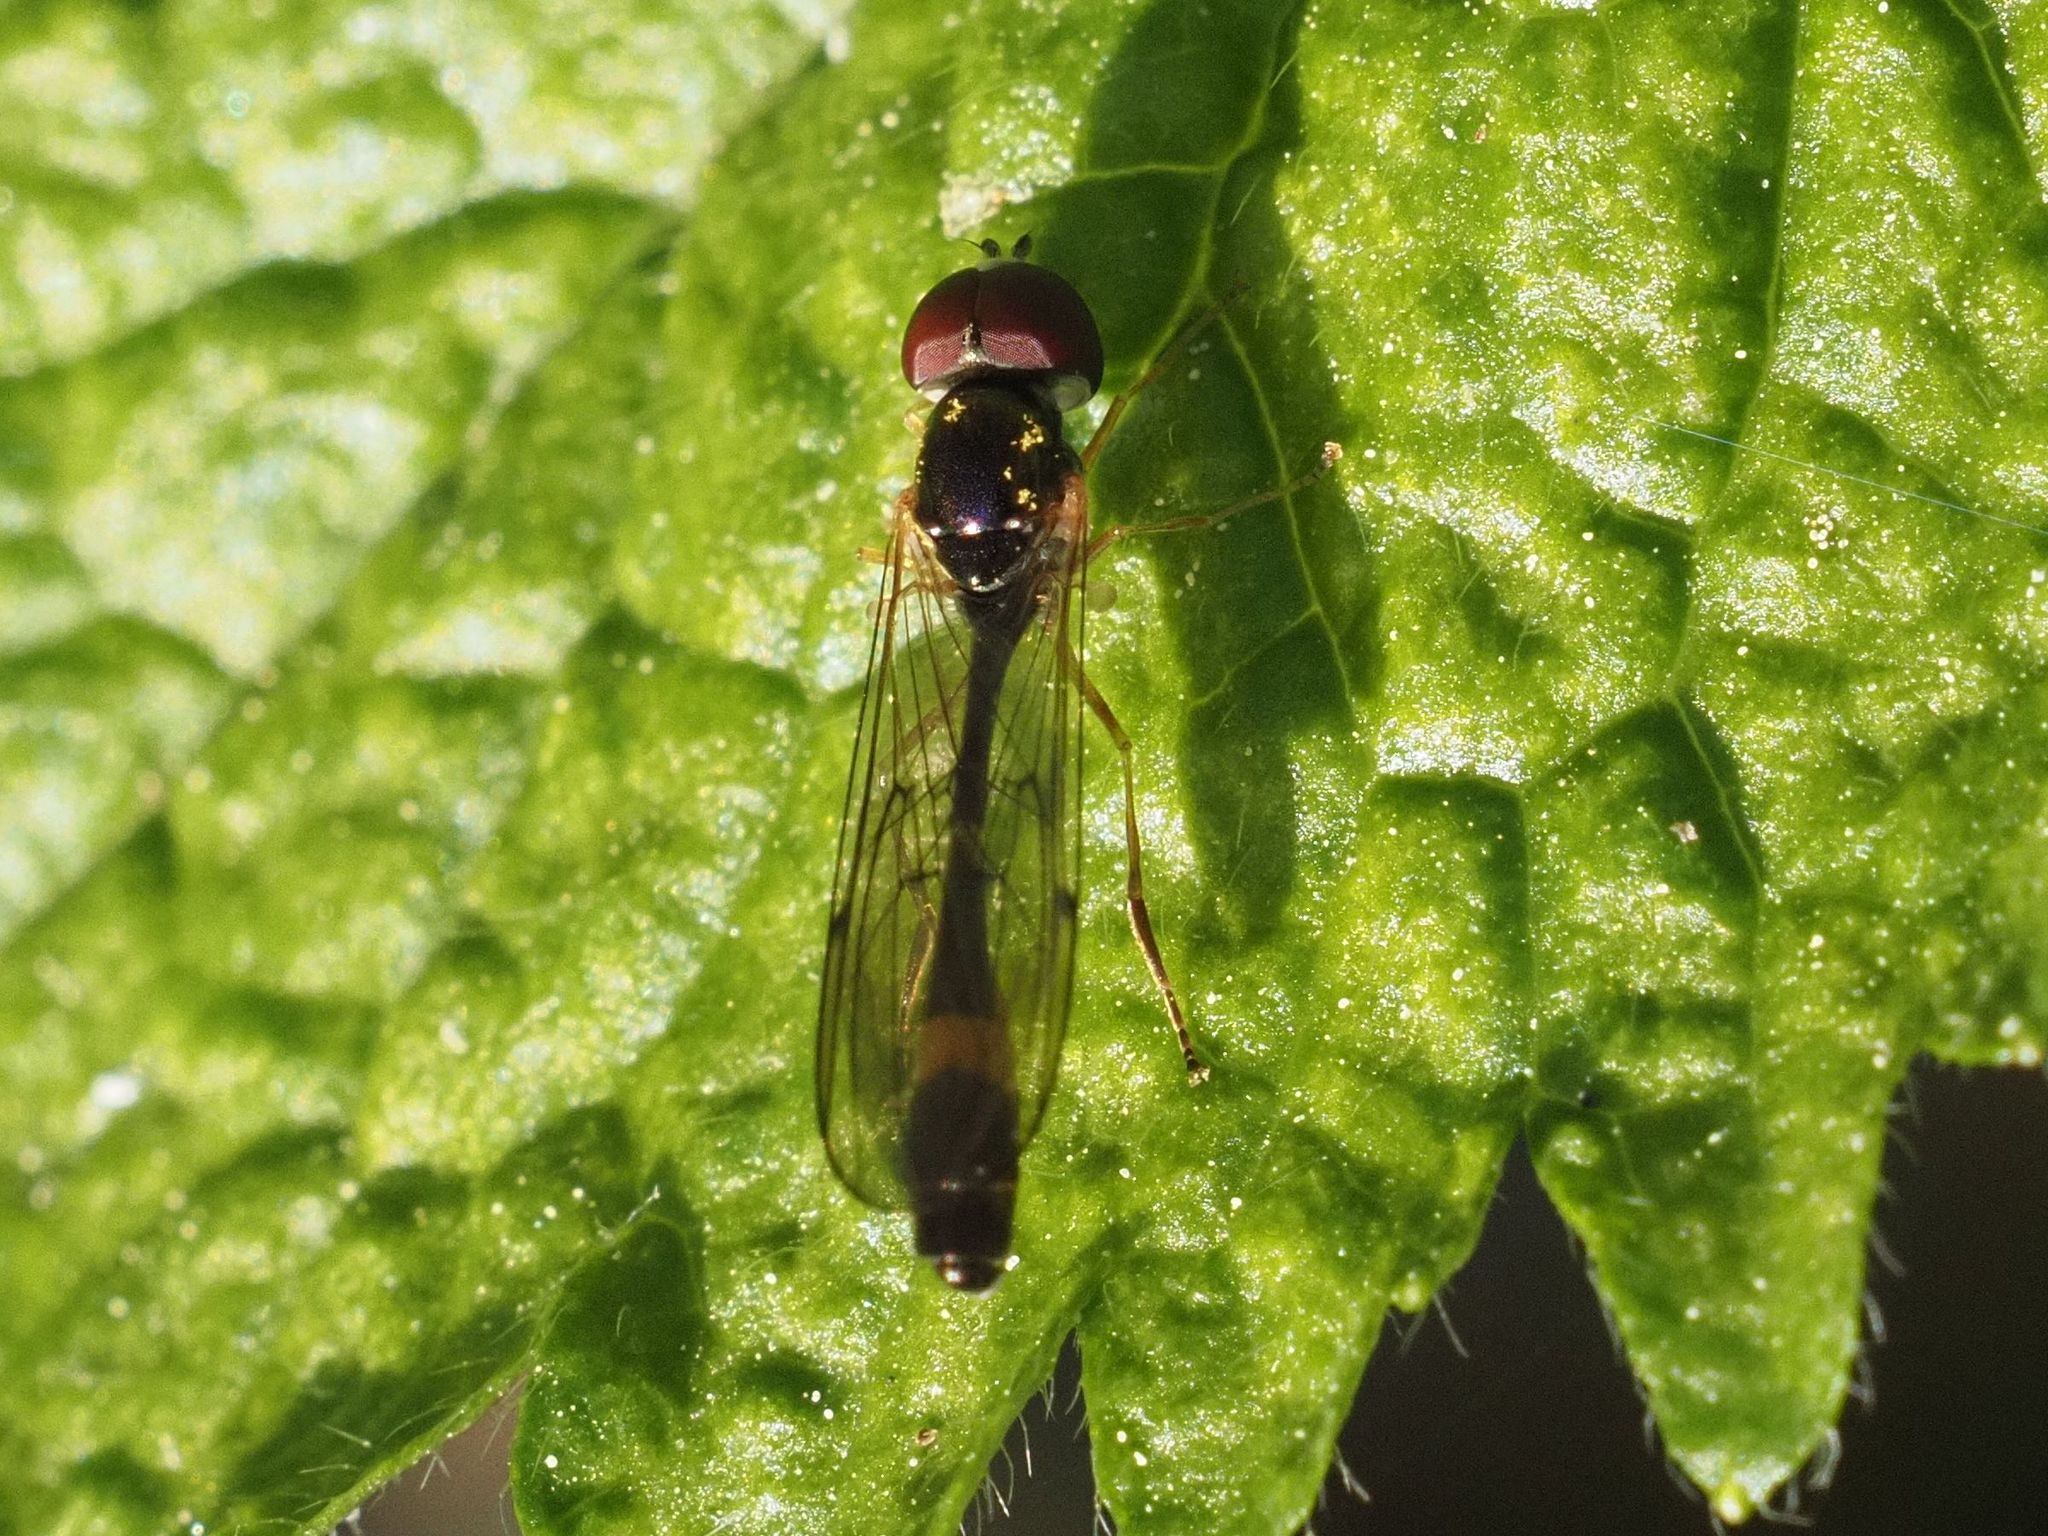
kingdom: Animalia
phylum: Arthropoda
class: Insecta
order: Diptera
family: Syrphidae
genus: Baccha
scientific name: Baccha elongata
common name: Common dainty
